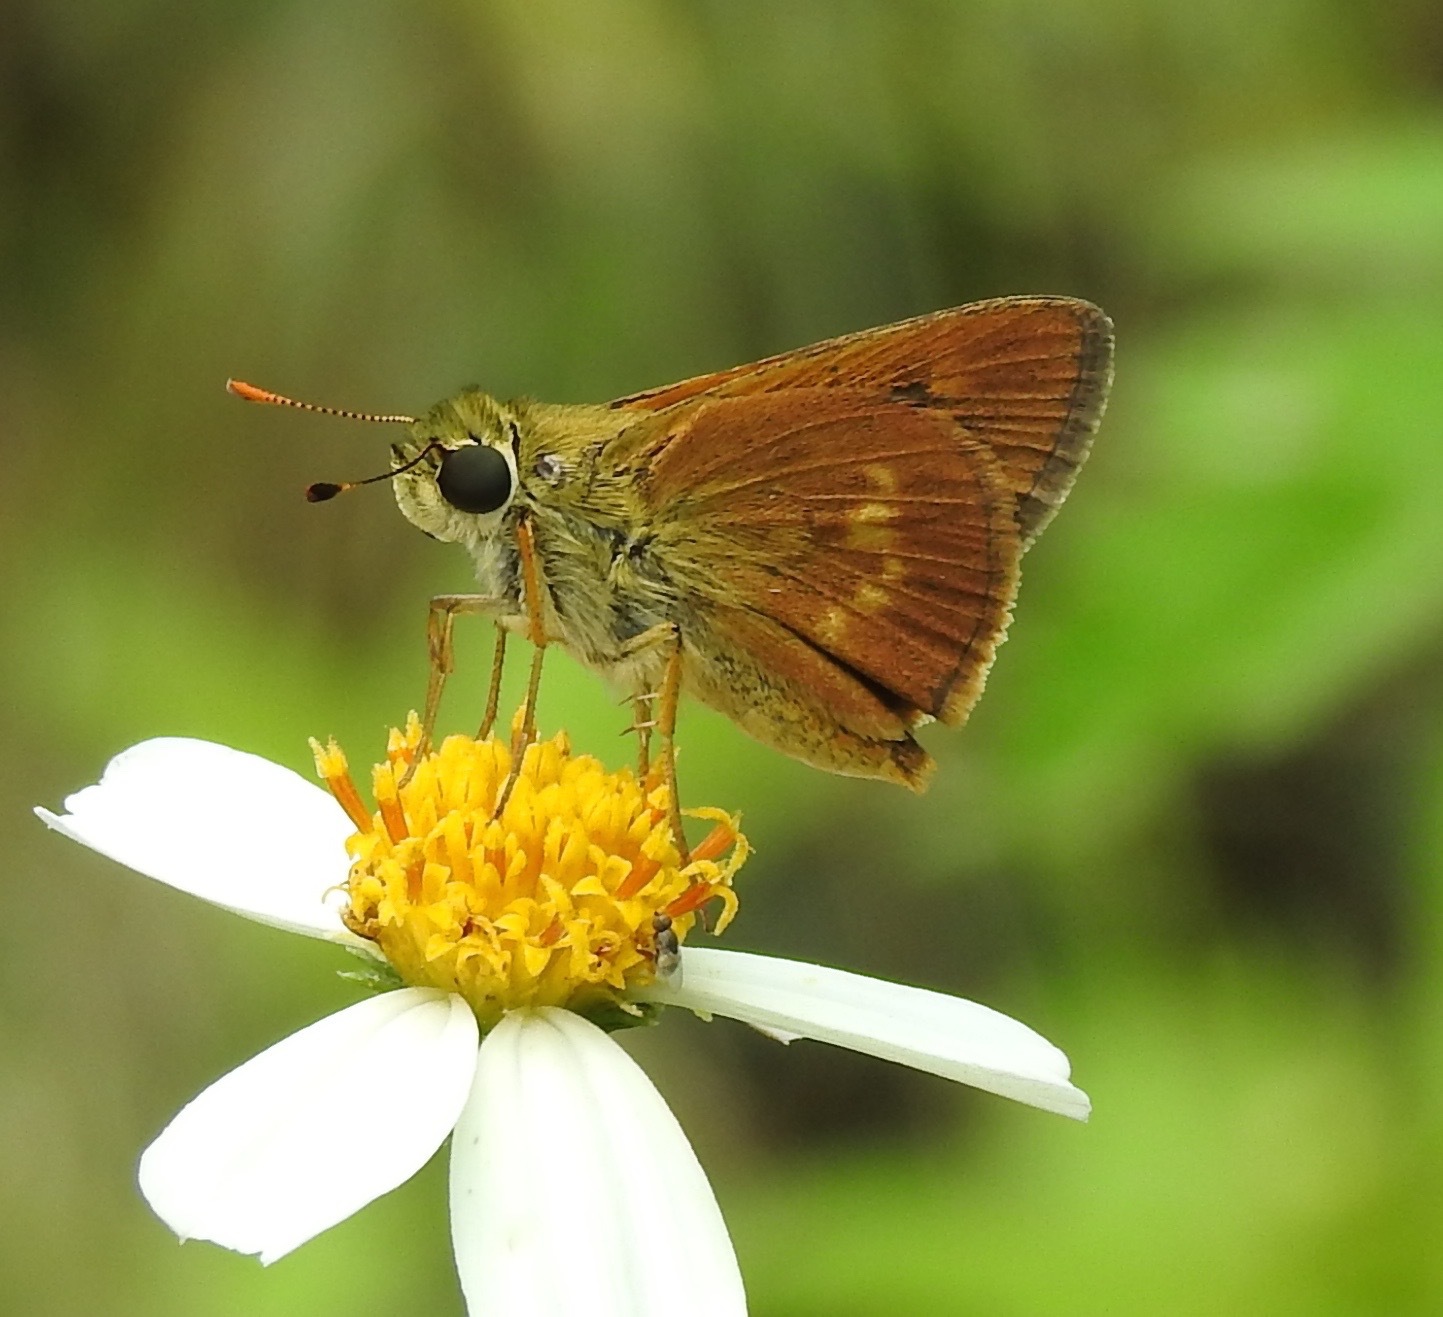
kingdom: Animalia
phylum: Arthropoda
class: Insecta
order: Lepidoptera
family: Hesperiidae
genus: Polites
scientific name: Polites otho
